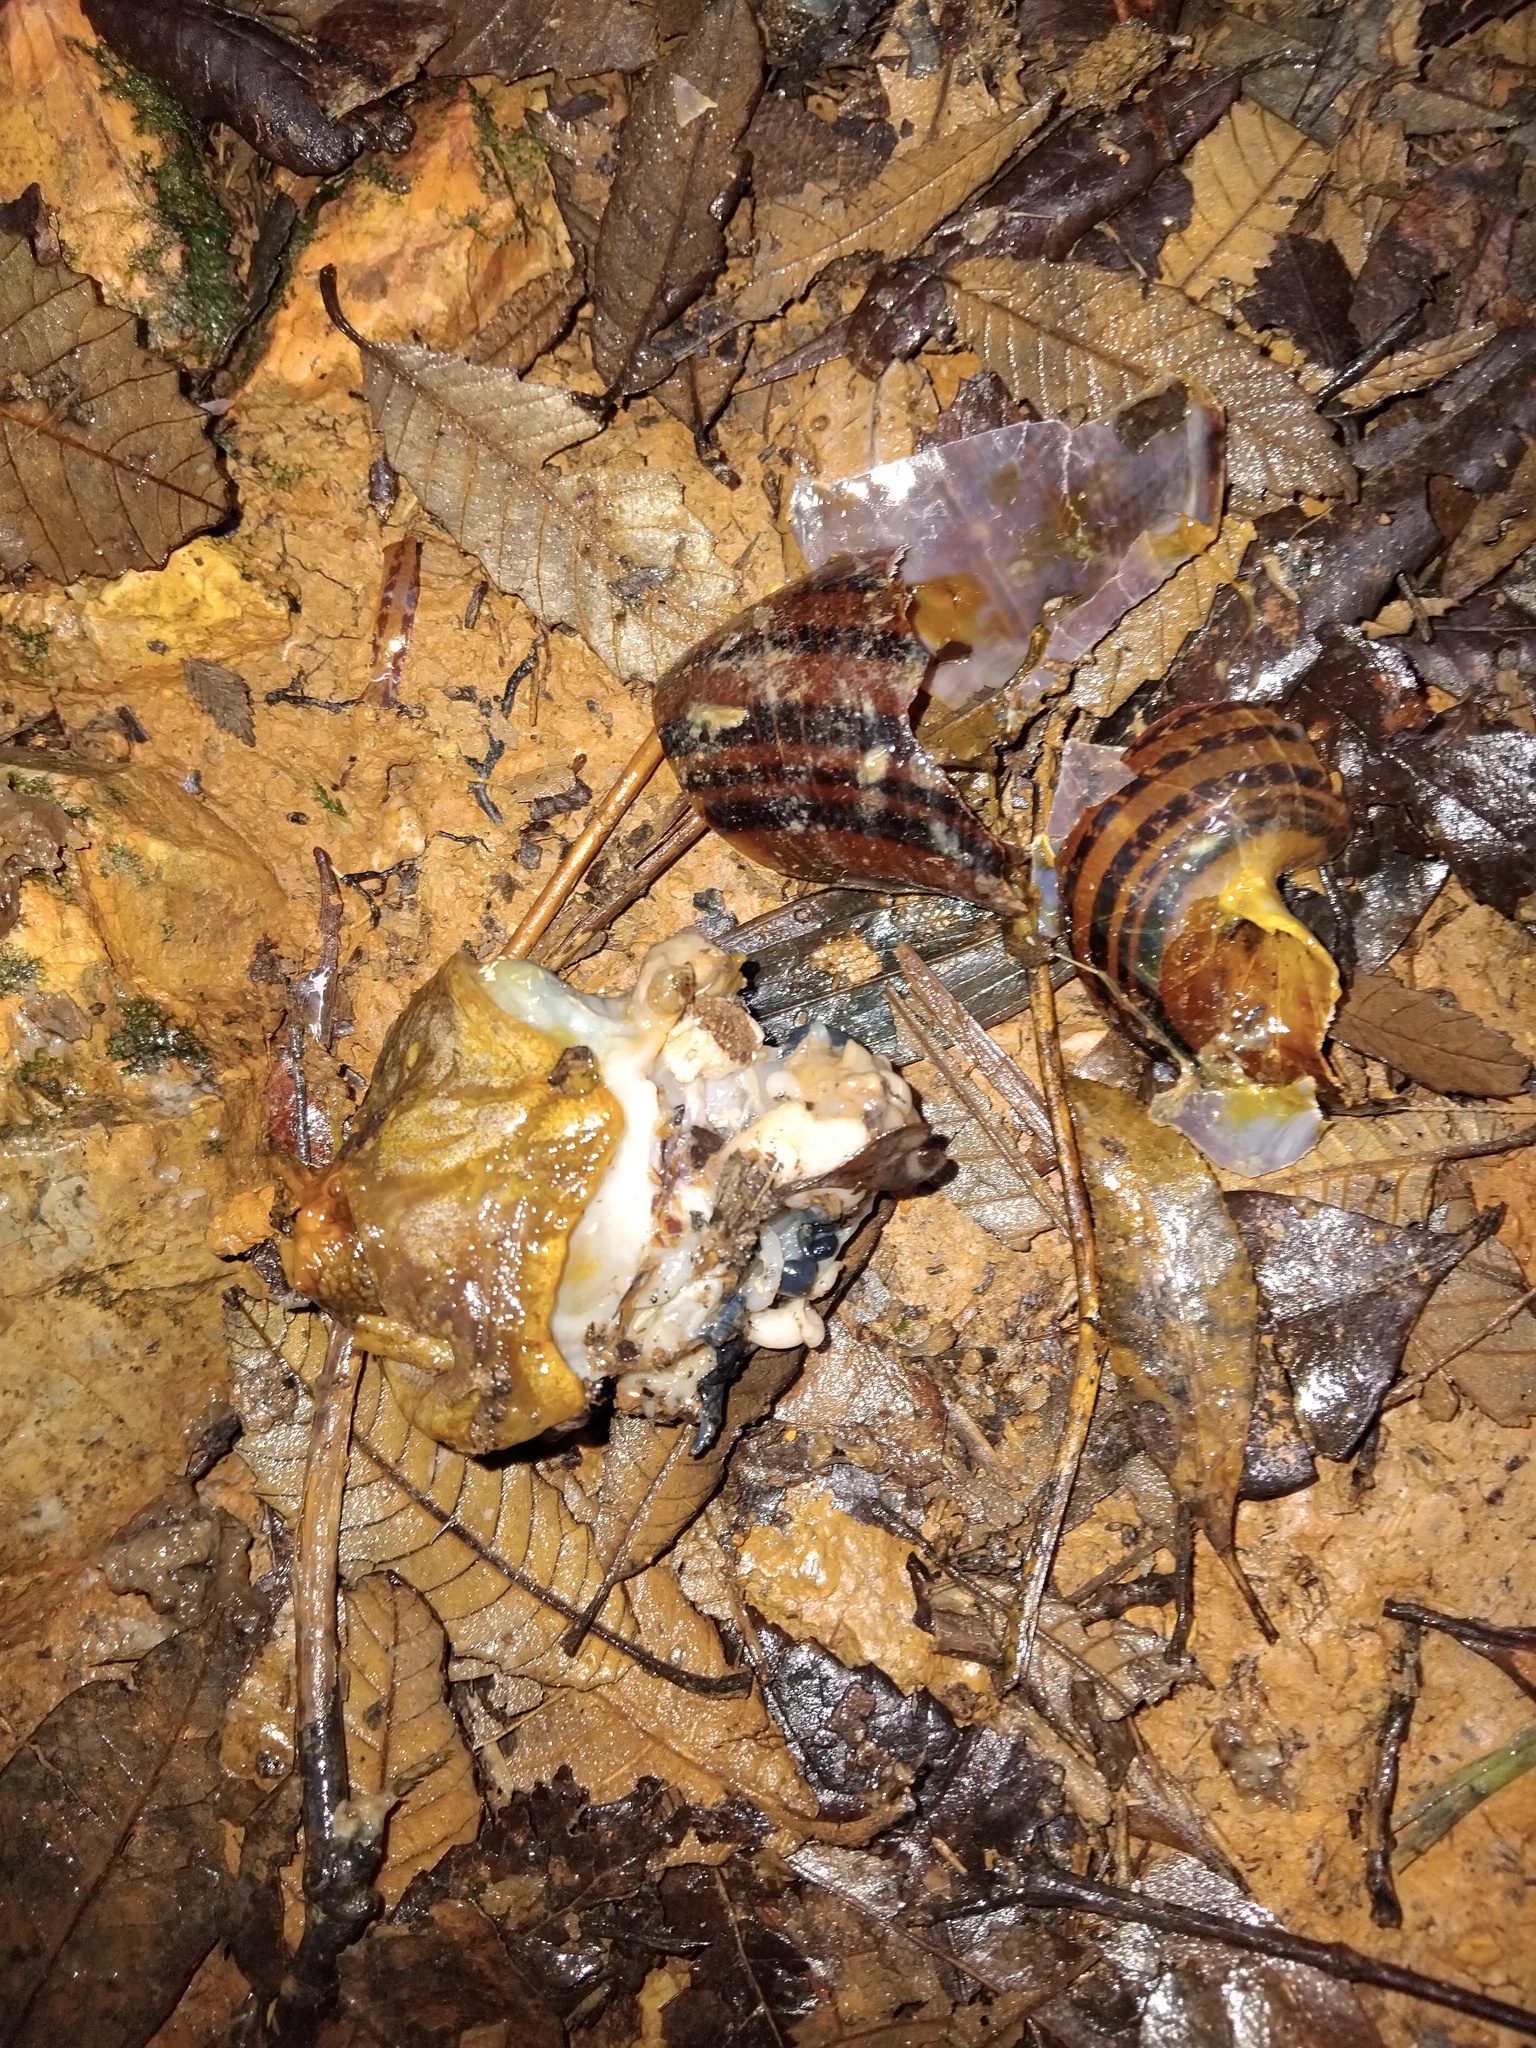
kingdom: Animalia
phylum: Mollusca
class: Gastropoda
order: Stylommatophora
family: Caryodidae
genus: Hedleyella
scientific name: Hedleyella falconeri
